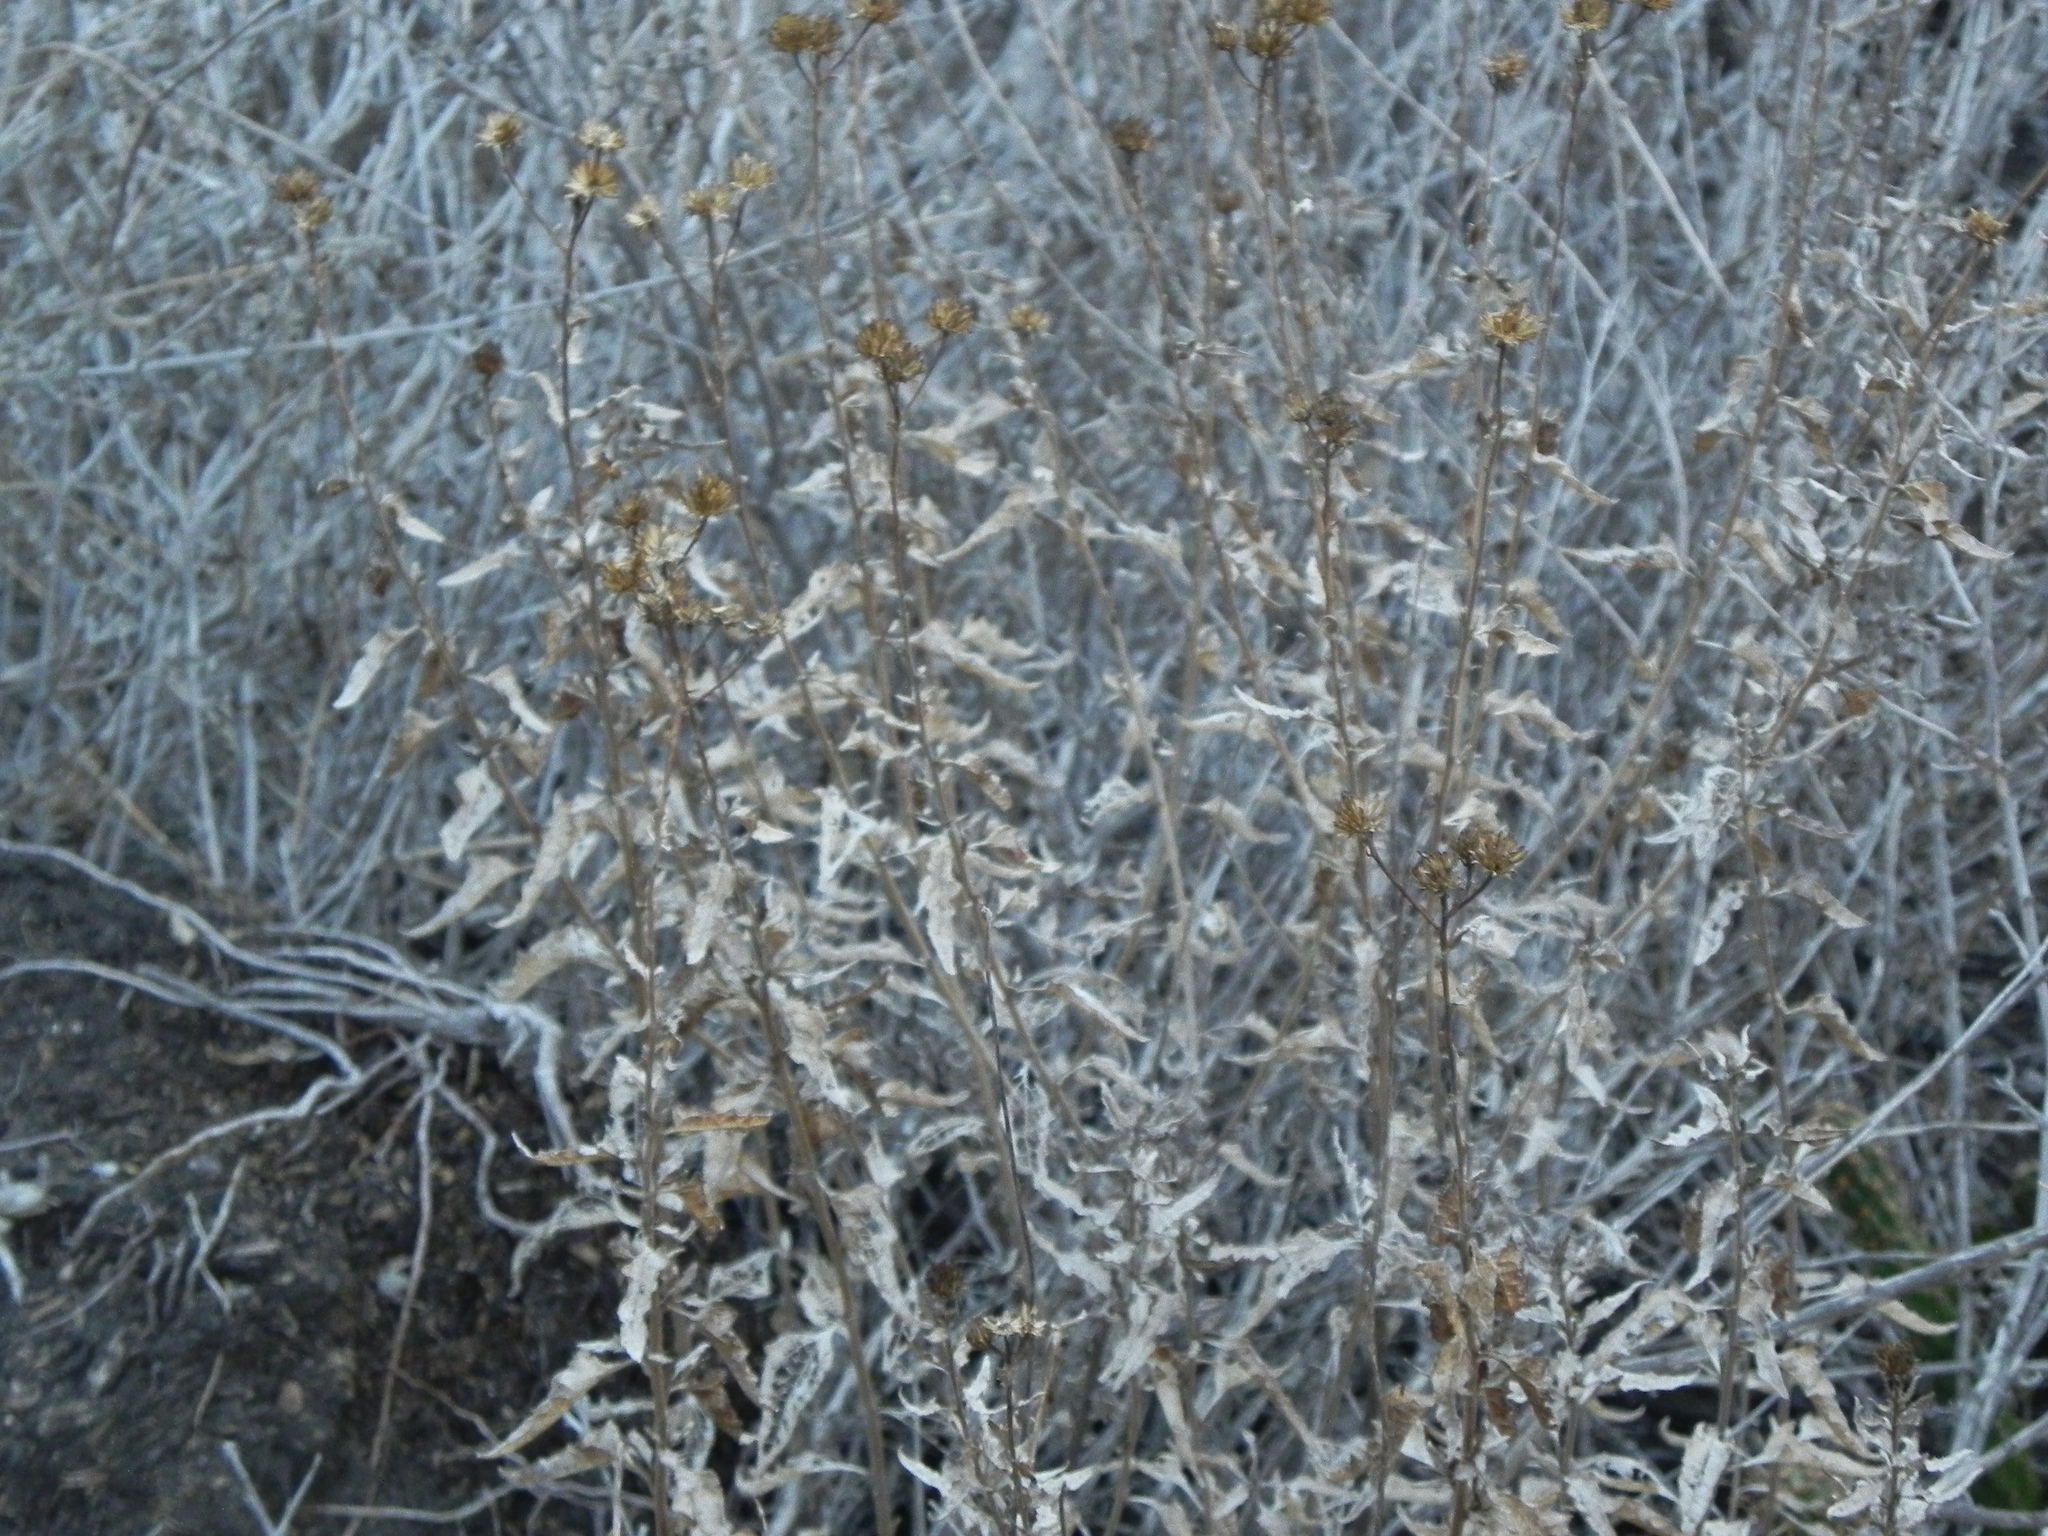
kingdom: Plantae
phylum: Tracheophyta
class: Magnoliopsida
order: Asterales
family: Asteraceae
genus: Bahiopsis
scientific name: Bahiopsis laciniata
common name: San diego county viguiera
